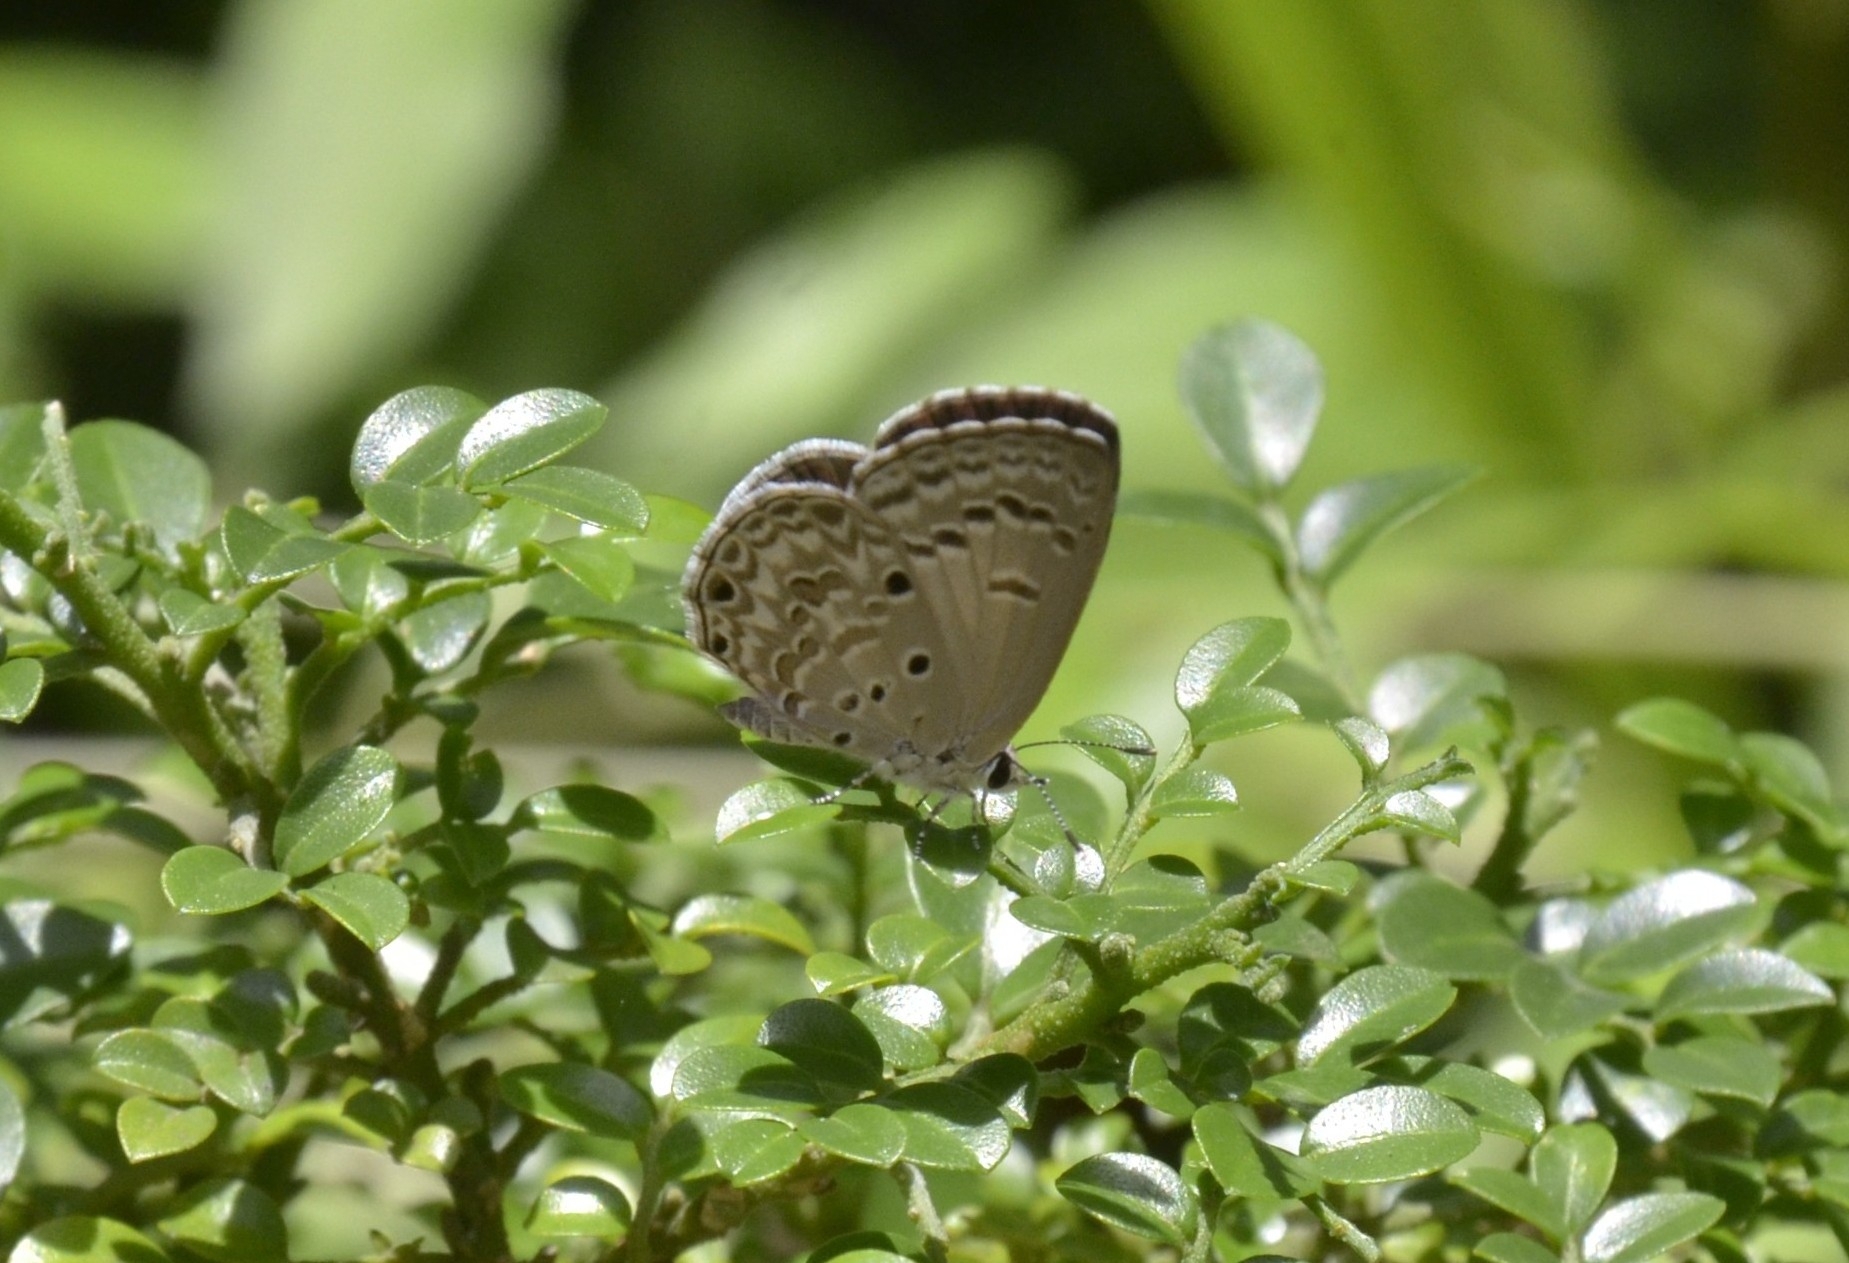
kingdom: Animalia
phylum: Arthropoda
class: Insecta
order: Lepidoptera
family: Lycaenidae
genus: Chilades
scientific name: Chilades laius
